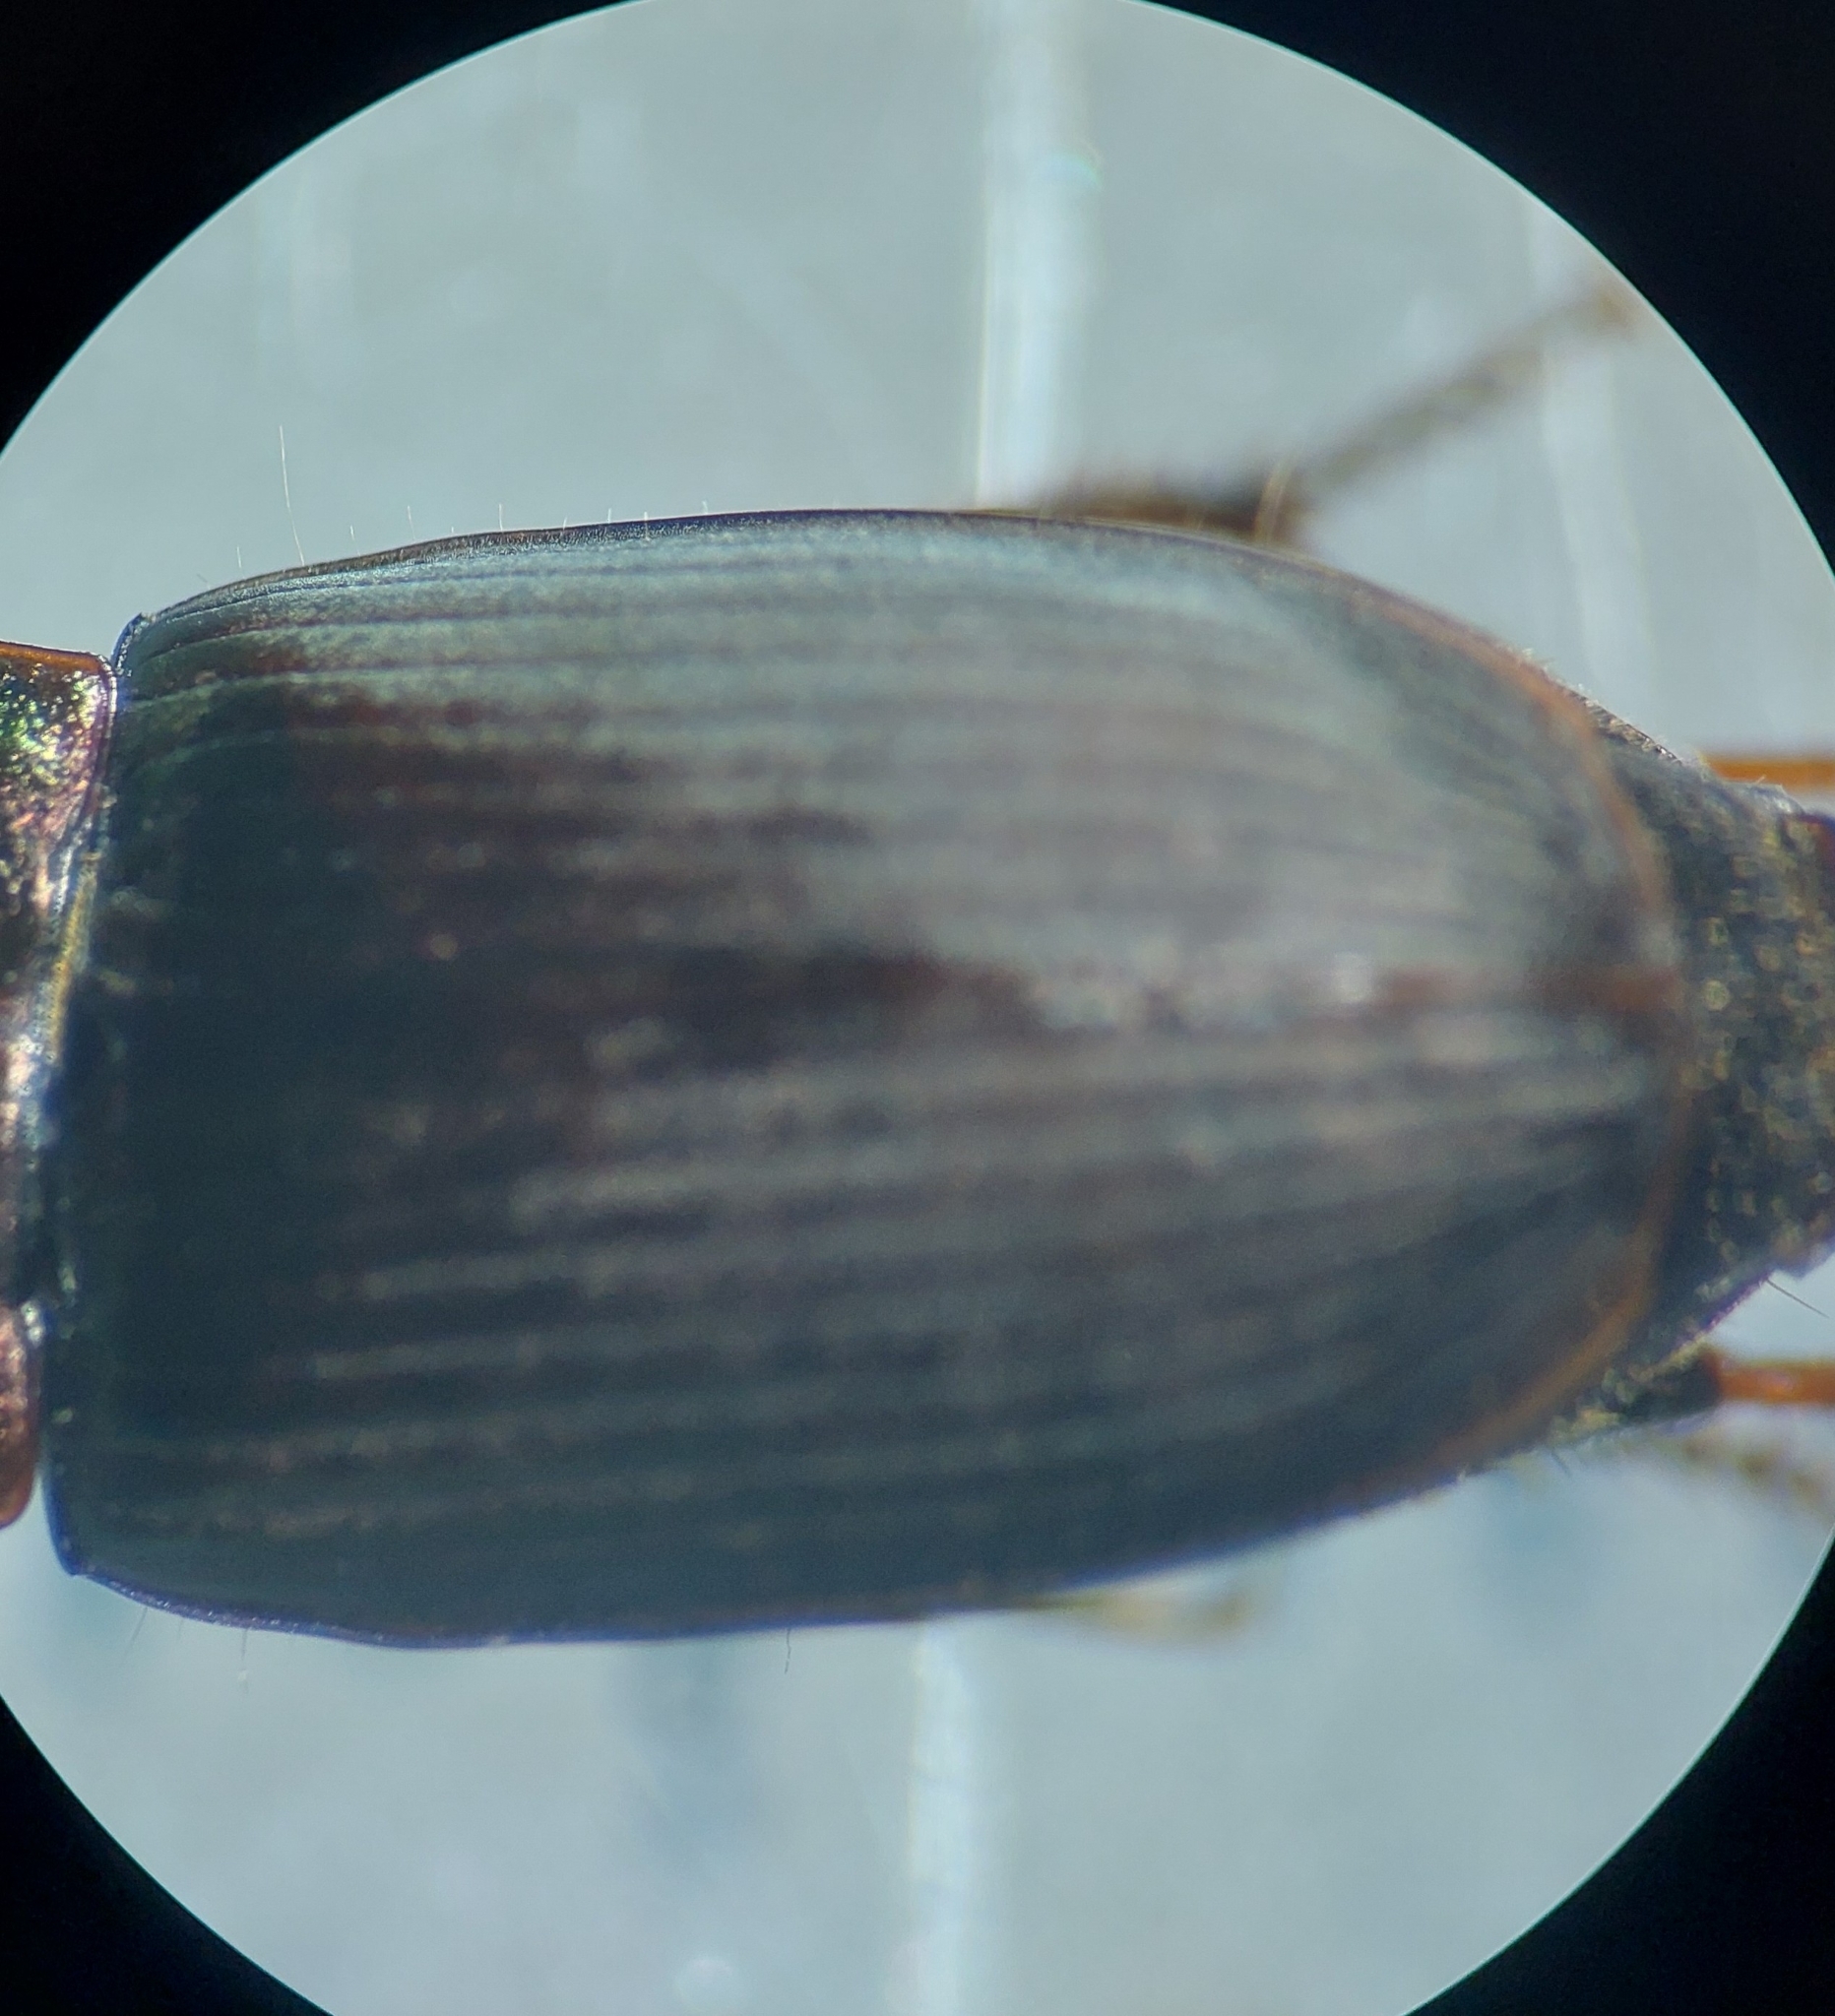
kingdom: Animalia
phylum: Arthropoda
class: Insecta
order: Coleoptera
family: Carabidae
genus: Harpalus
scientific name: Harpalus distinguendus
